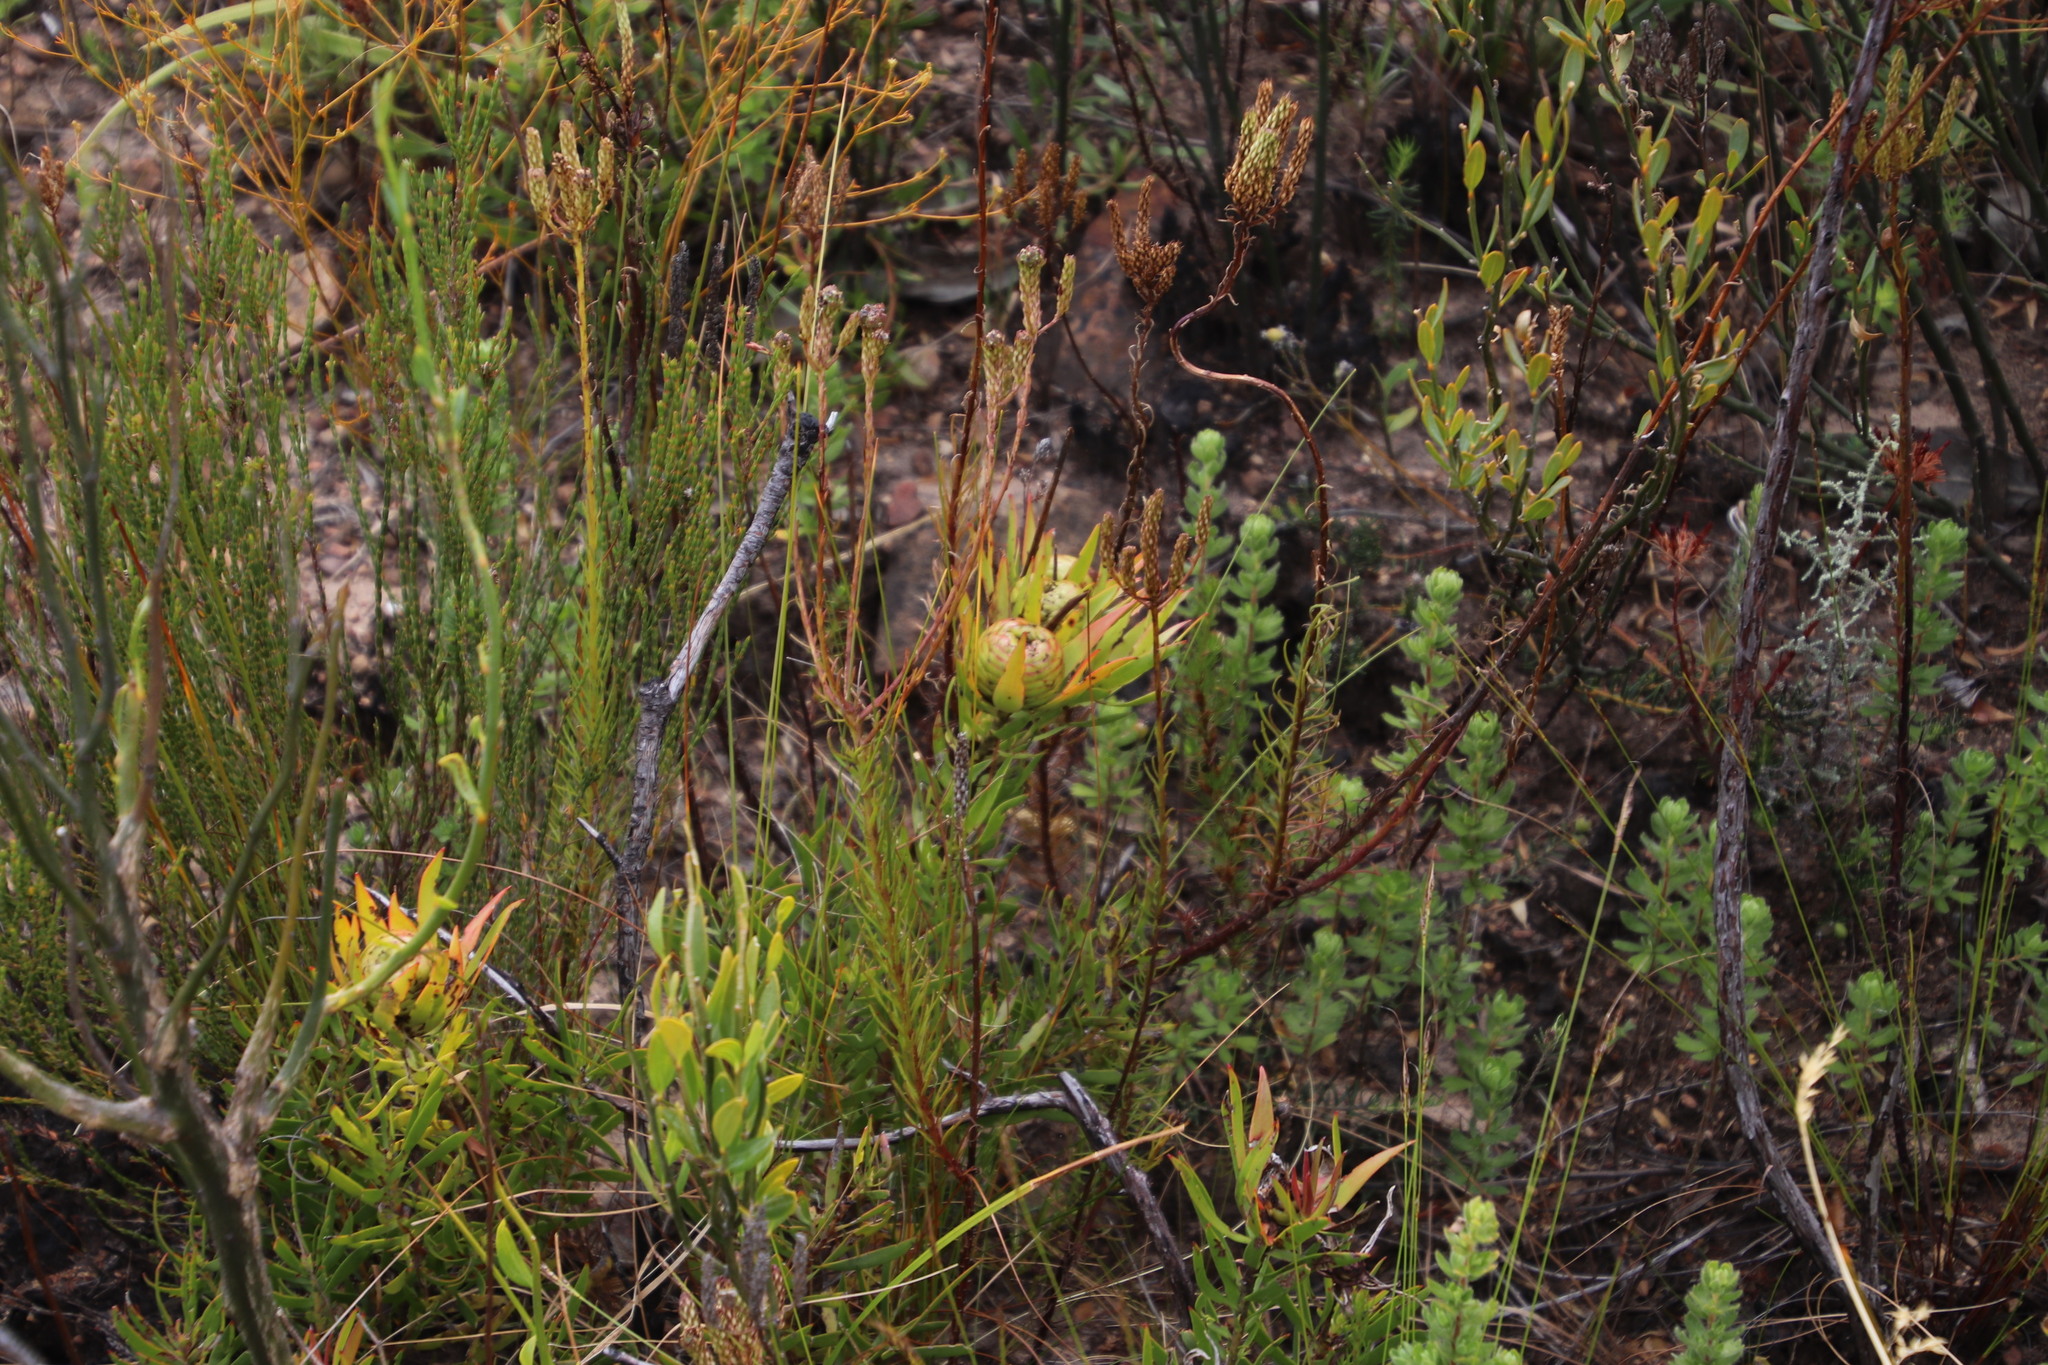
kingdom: Plantae
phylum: Tracheophyta
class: Magnoliopsida
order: Proteales
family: Proteaceae
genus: Leucadendron
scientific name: Leucadendron spissifolium
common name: Spear-leaf conebush
